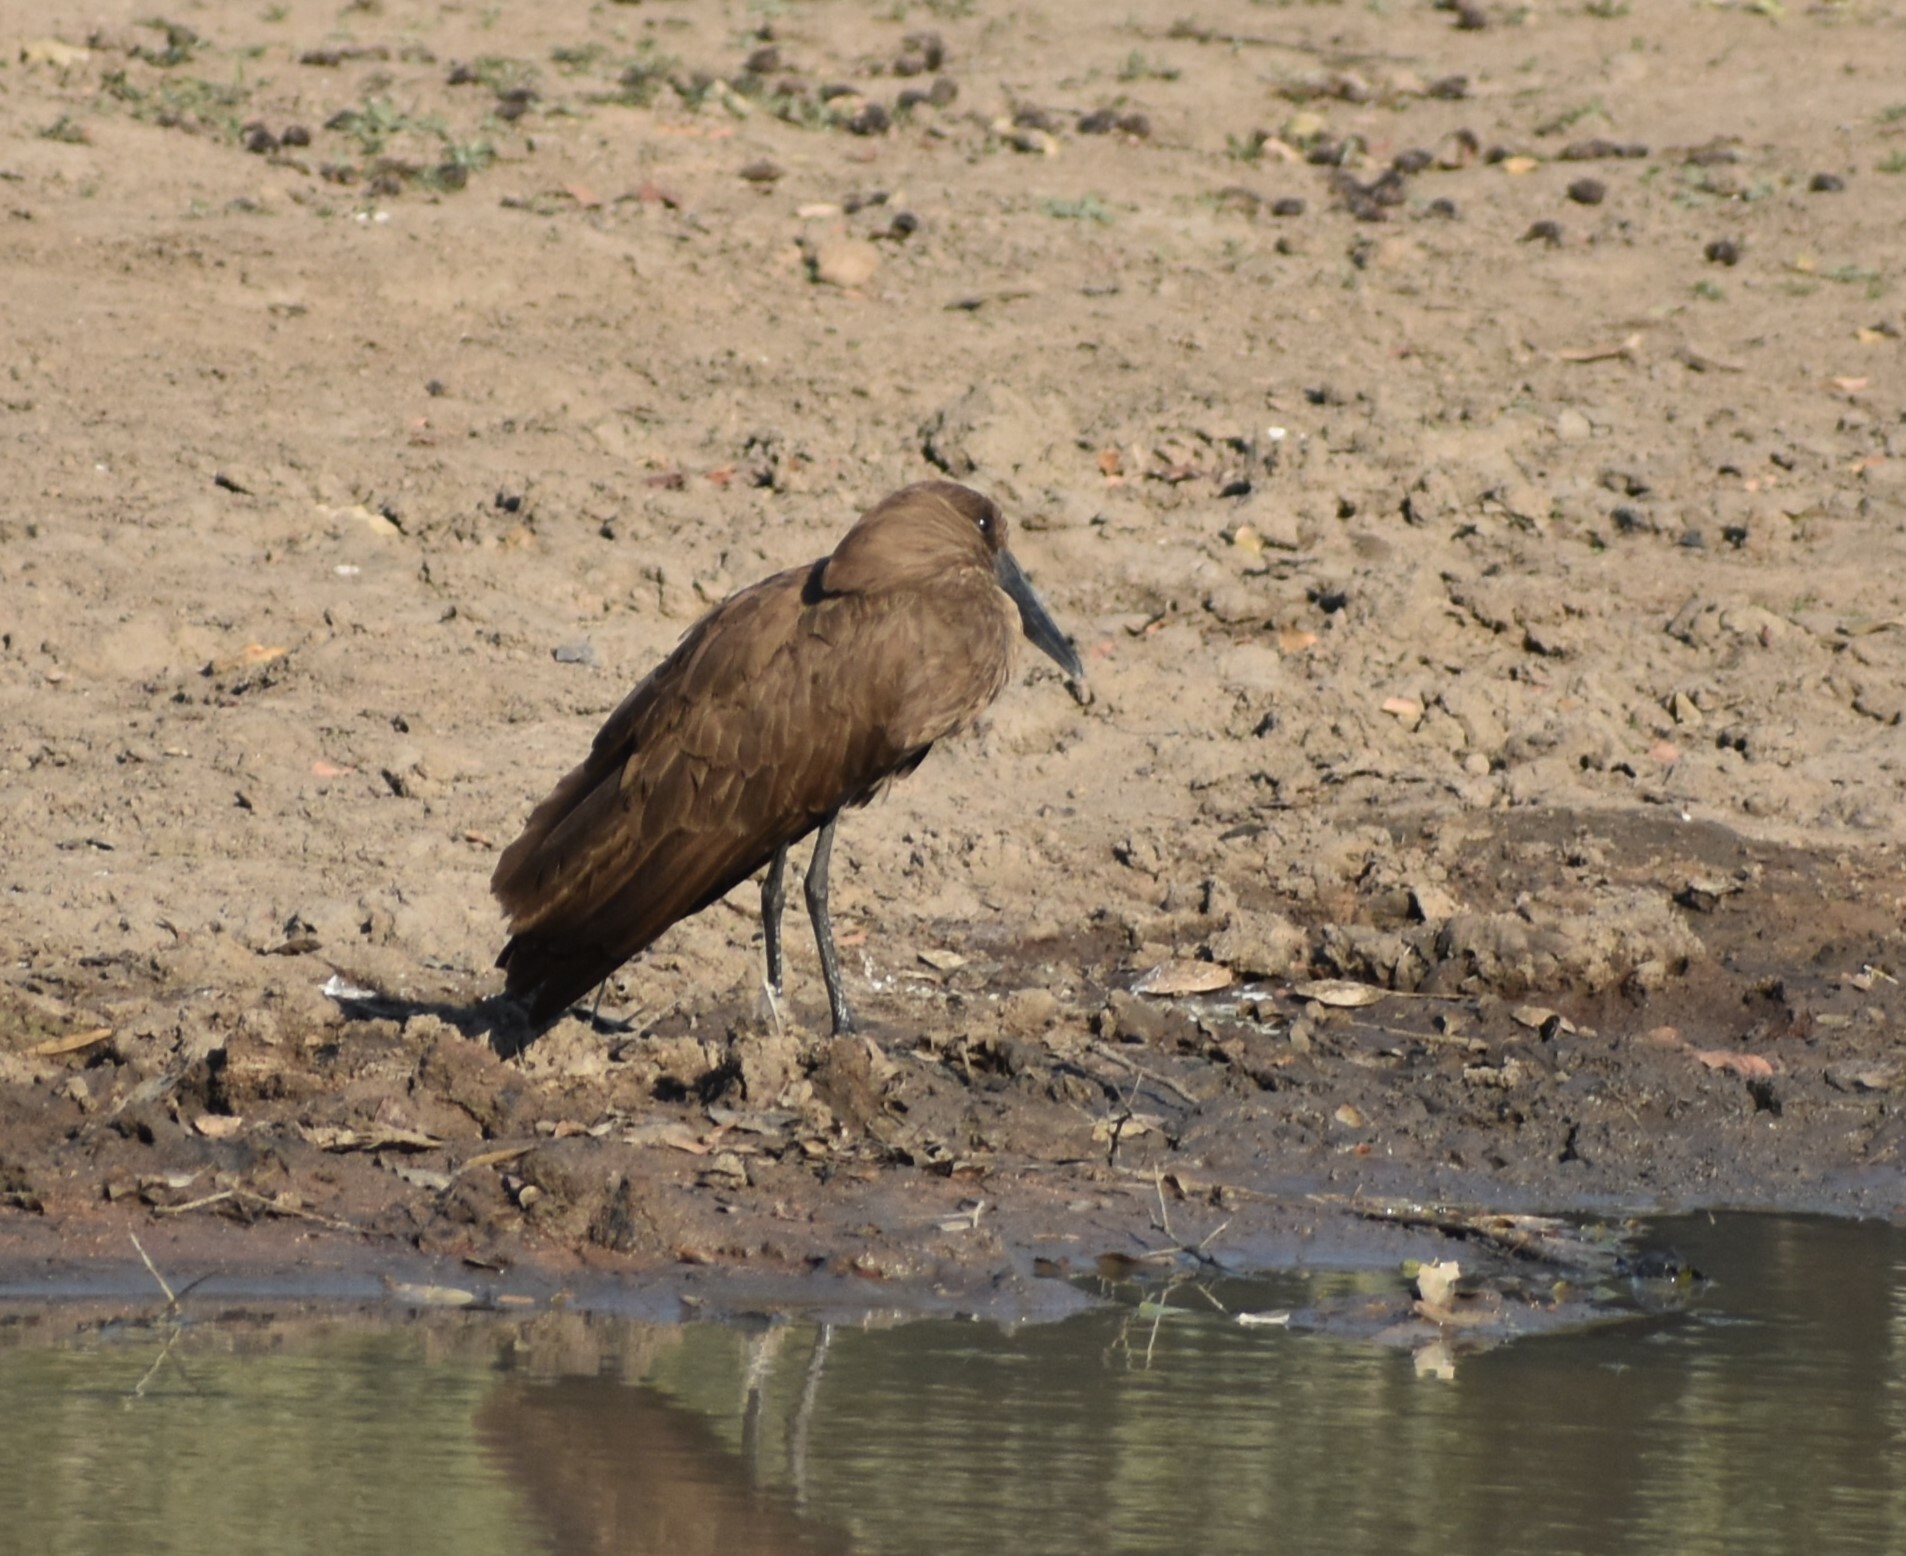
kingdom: Animalia
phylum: Chordata
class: Aves
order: Pelecaniformes
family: Scopidae
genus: Scopus
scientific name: Scopus umbretta
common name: Hamerkop
